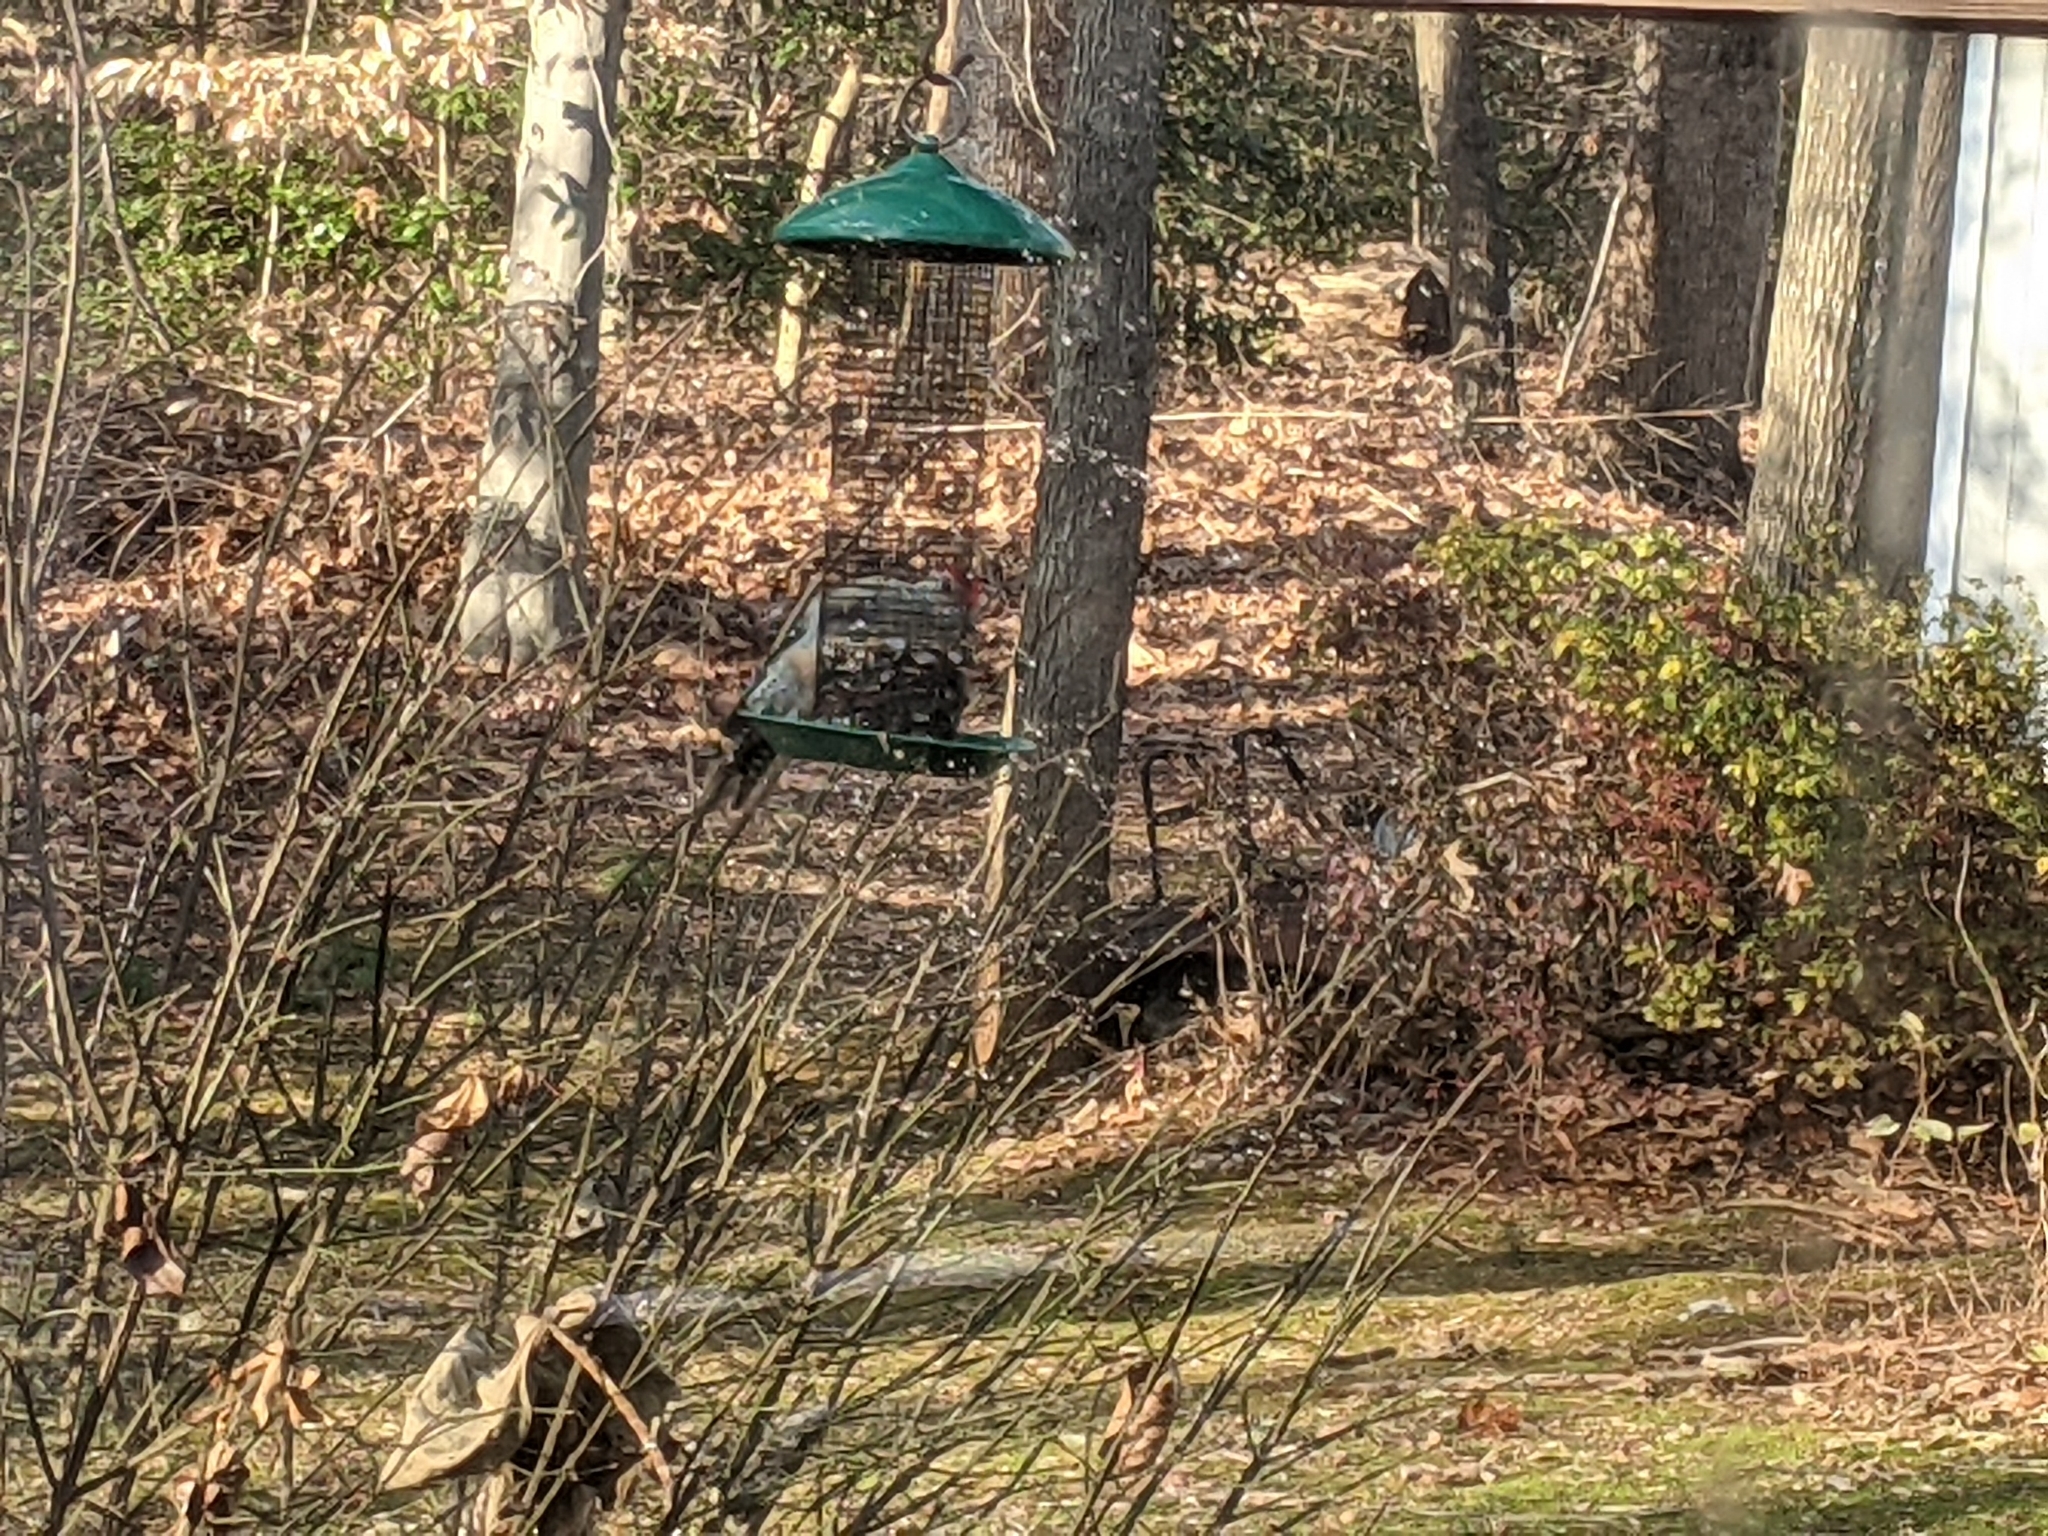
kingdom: Animalia
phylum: Chordata
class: Aves
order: Piciformes
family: Picidae
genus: Melanerpes
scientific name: Melanerpes carolinus
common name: Red-bellied woodpecker
